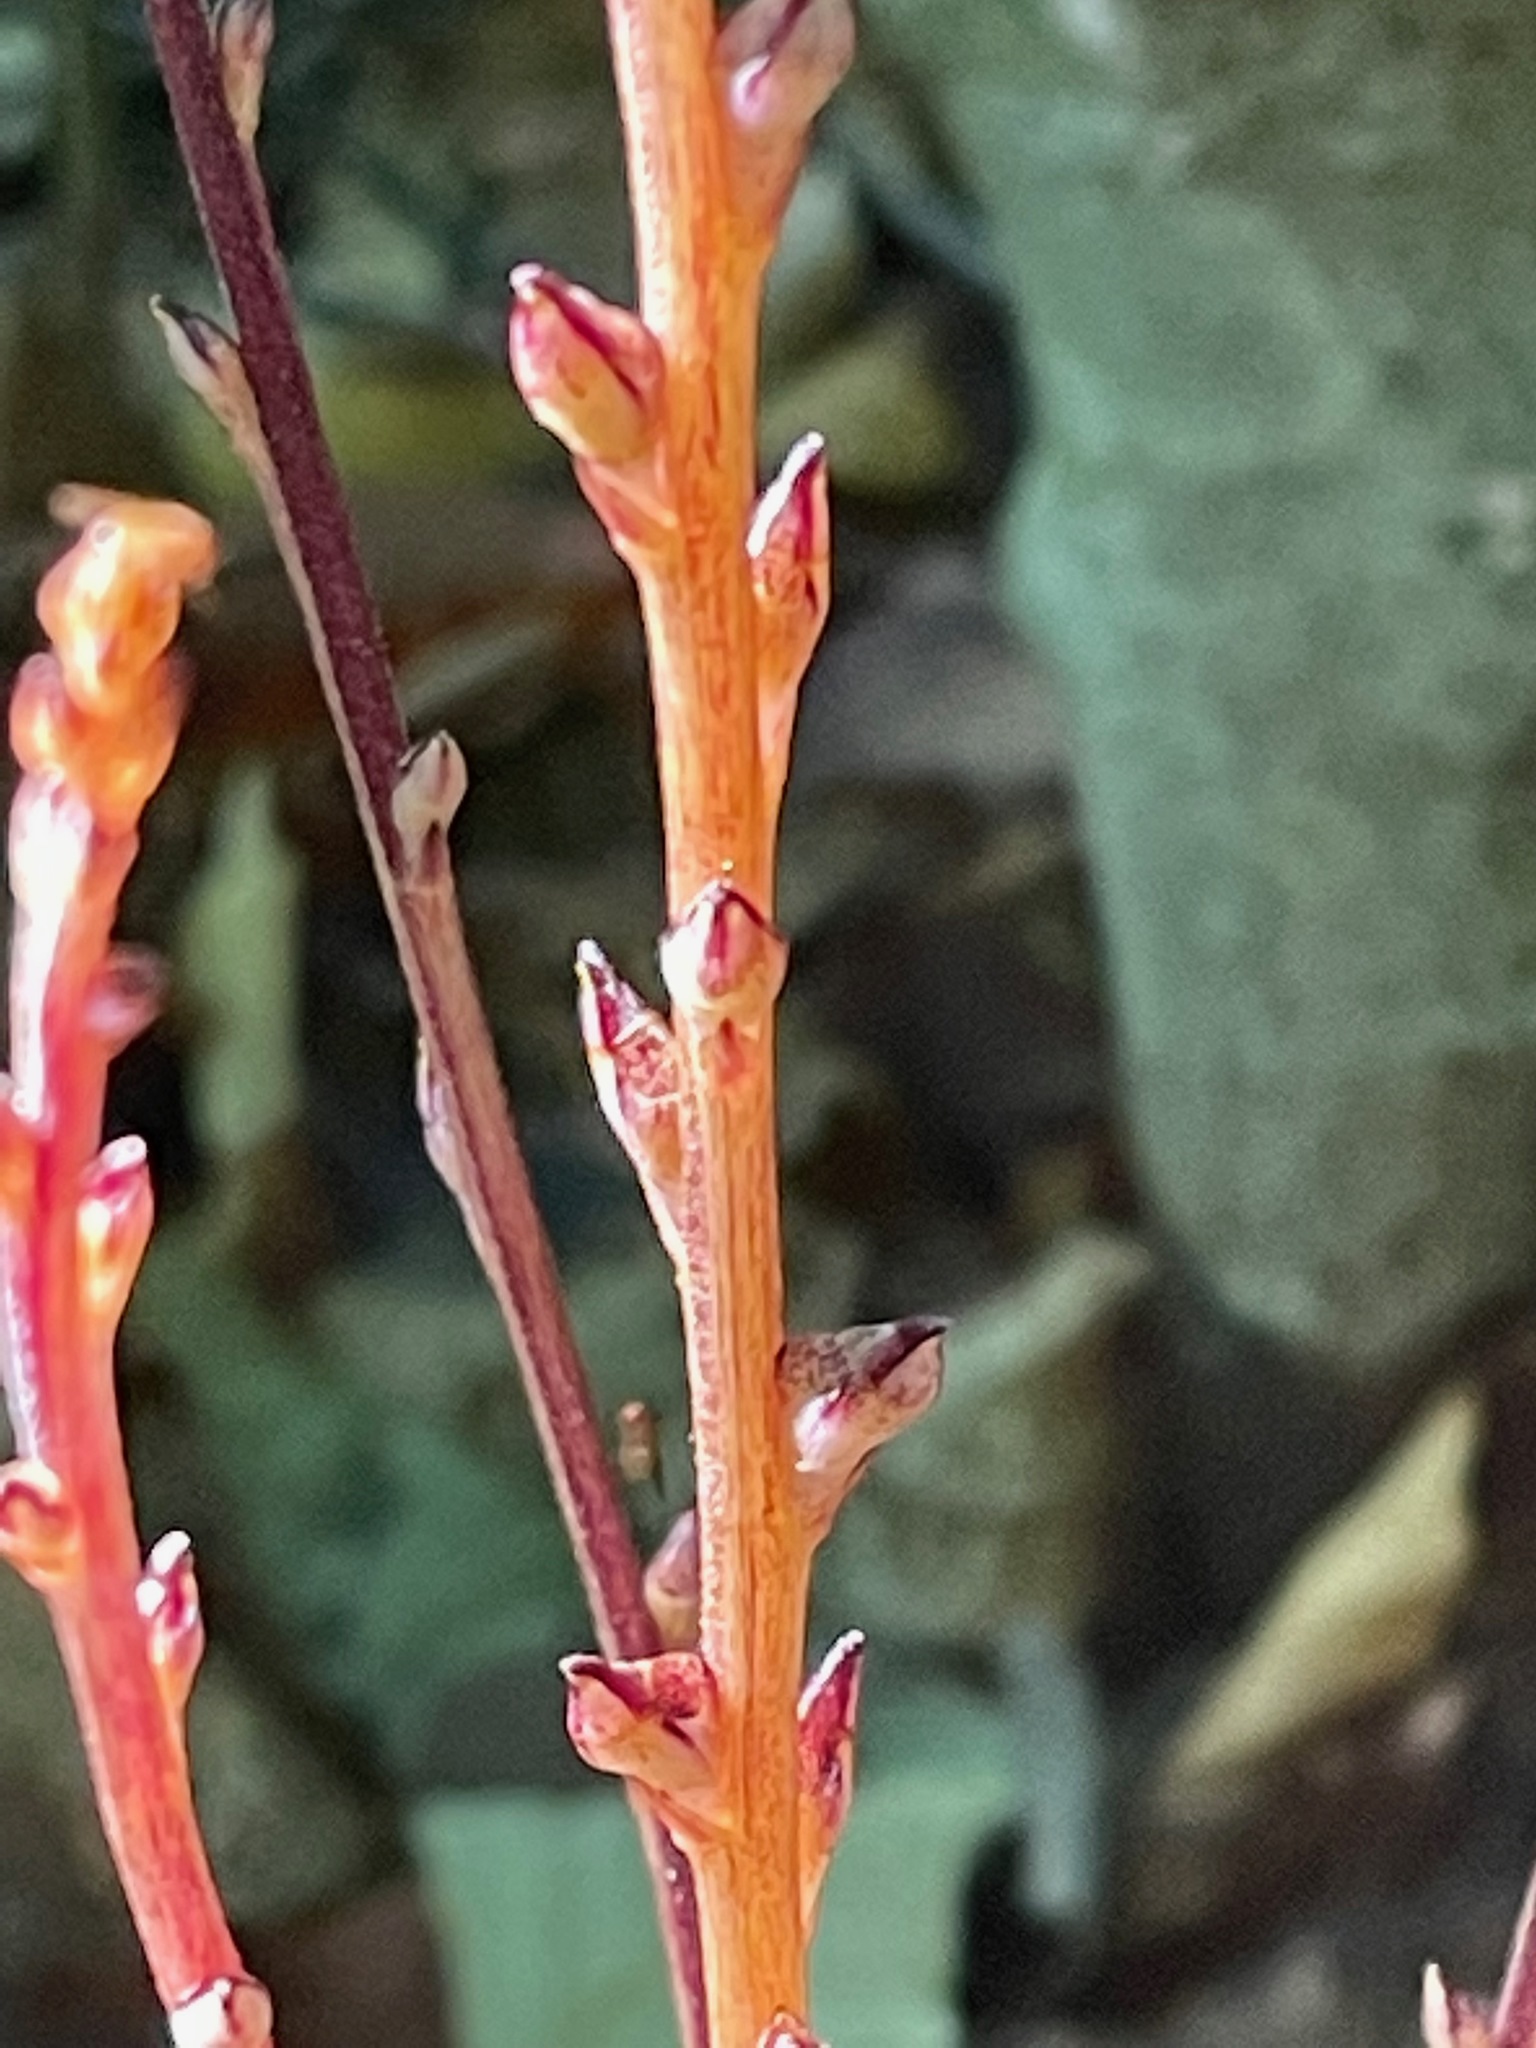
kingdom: Plantae
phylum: Tracheophyta
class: Magnoliopsida
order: Lamiales
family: Orobanchaceae
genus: Epifagus
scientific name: Epifagus virginiana
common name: Beechdrops
